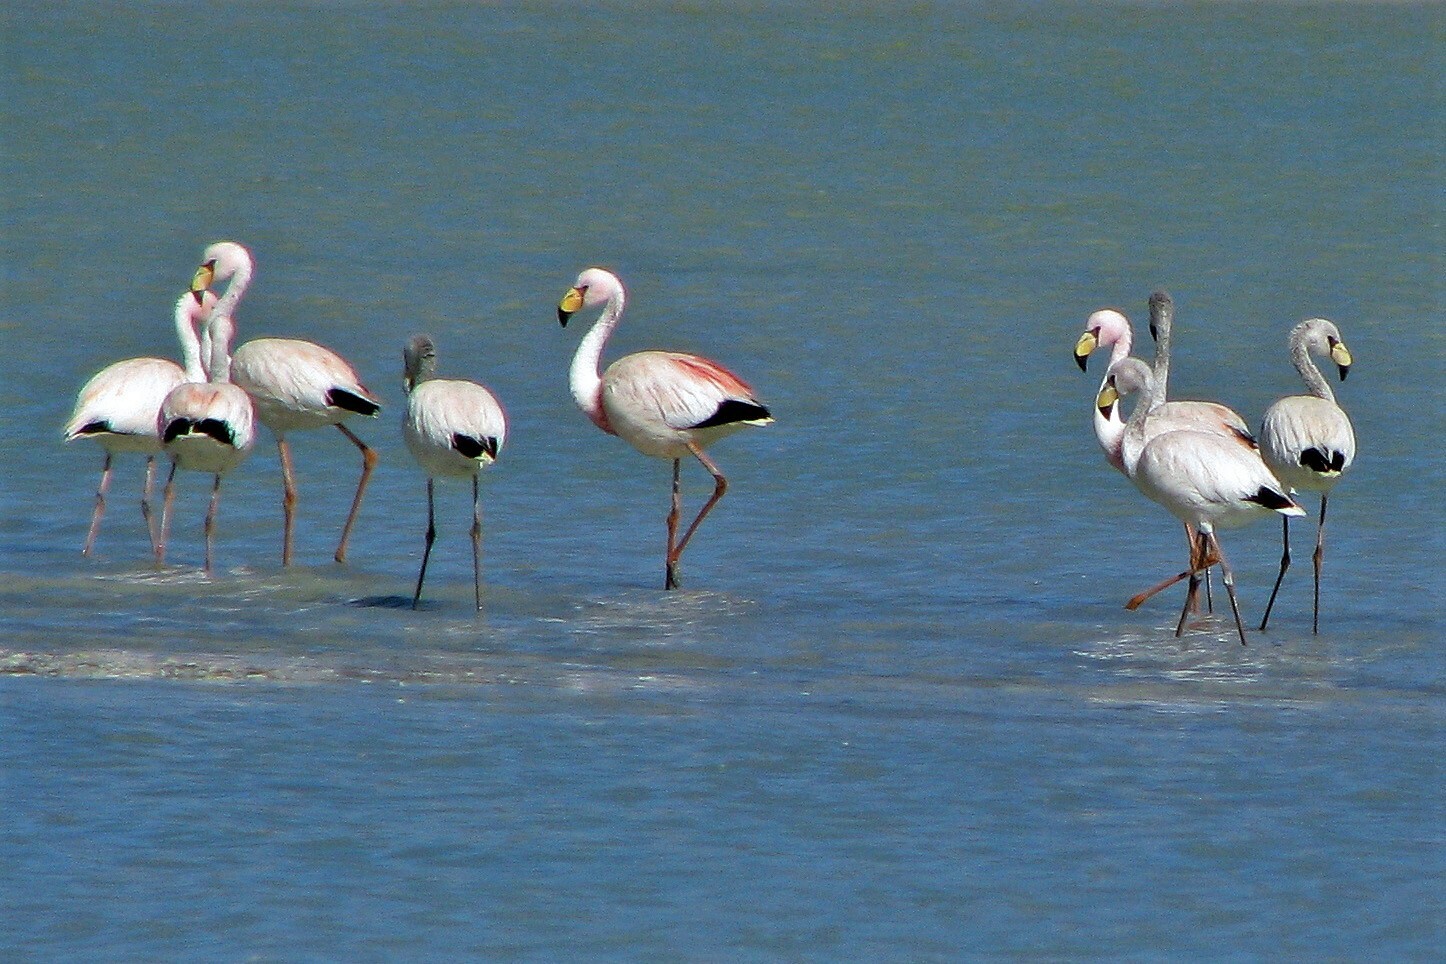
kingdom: Animalia
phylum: Chordata
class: Aves
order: Phoenicopteriformes
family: Phoenicopteridae
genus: Phoenicoparrus
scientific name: Phoenicoparrus jamesi
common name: James's flamingo
